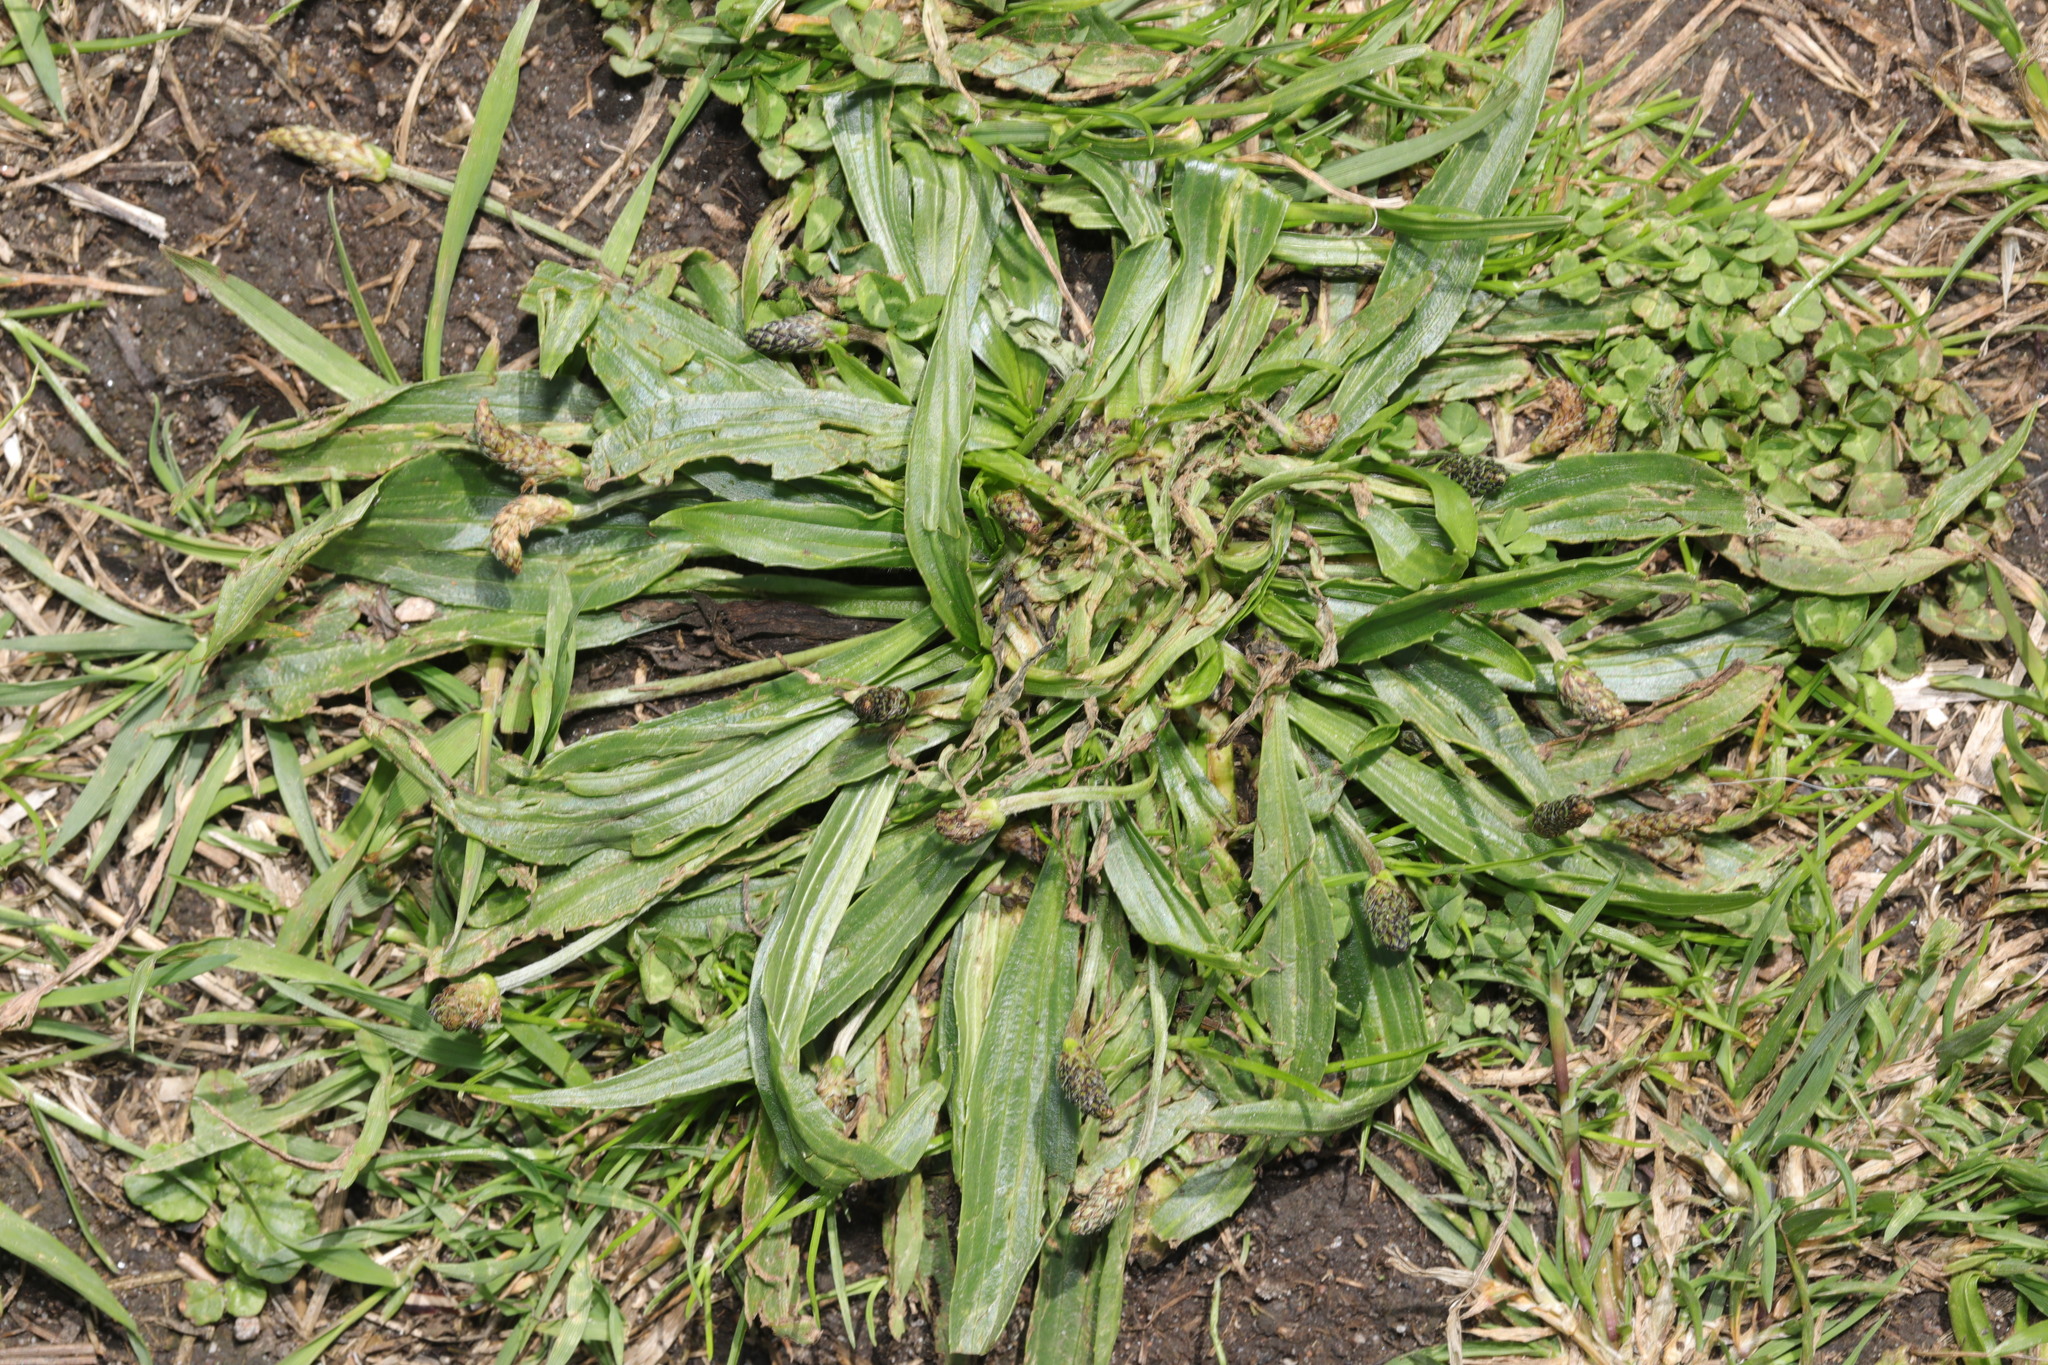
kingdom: Plantae
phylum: Tracheophyta
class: Magnoliopsida
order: Lamiales
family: Plantaginaceae
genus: Plantago
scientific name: Plantago lanceolata
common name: Ribwort plantain
